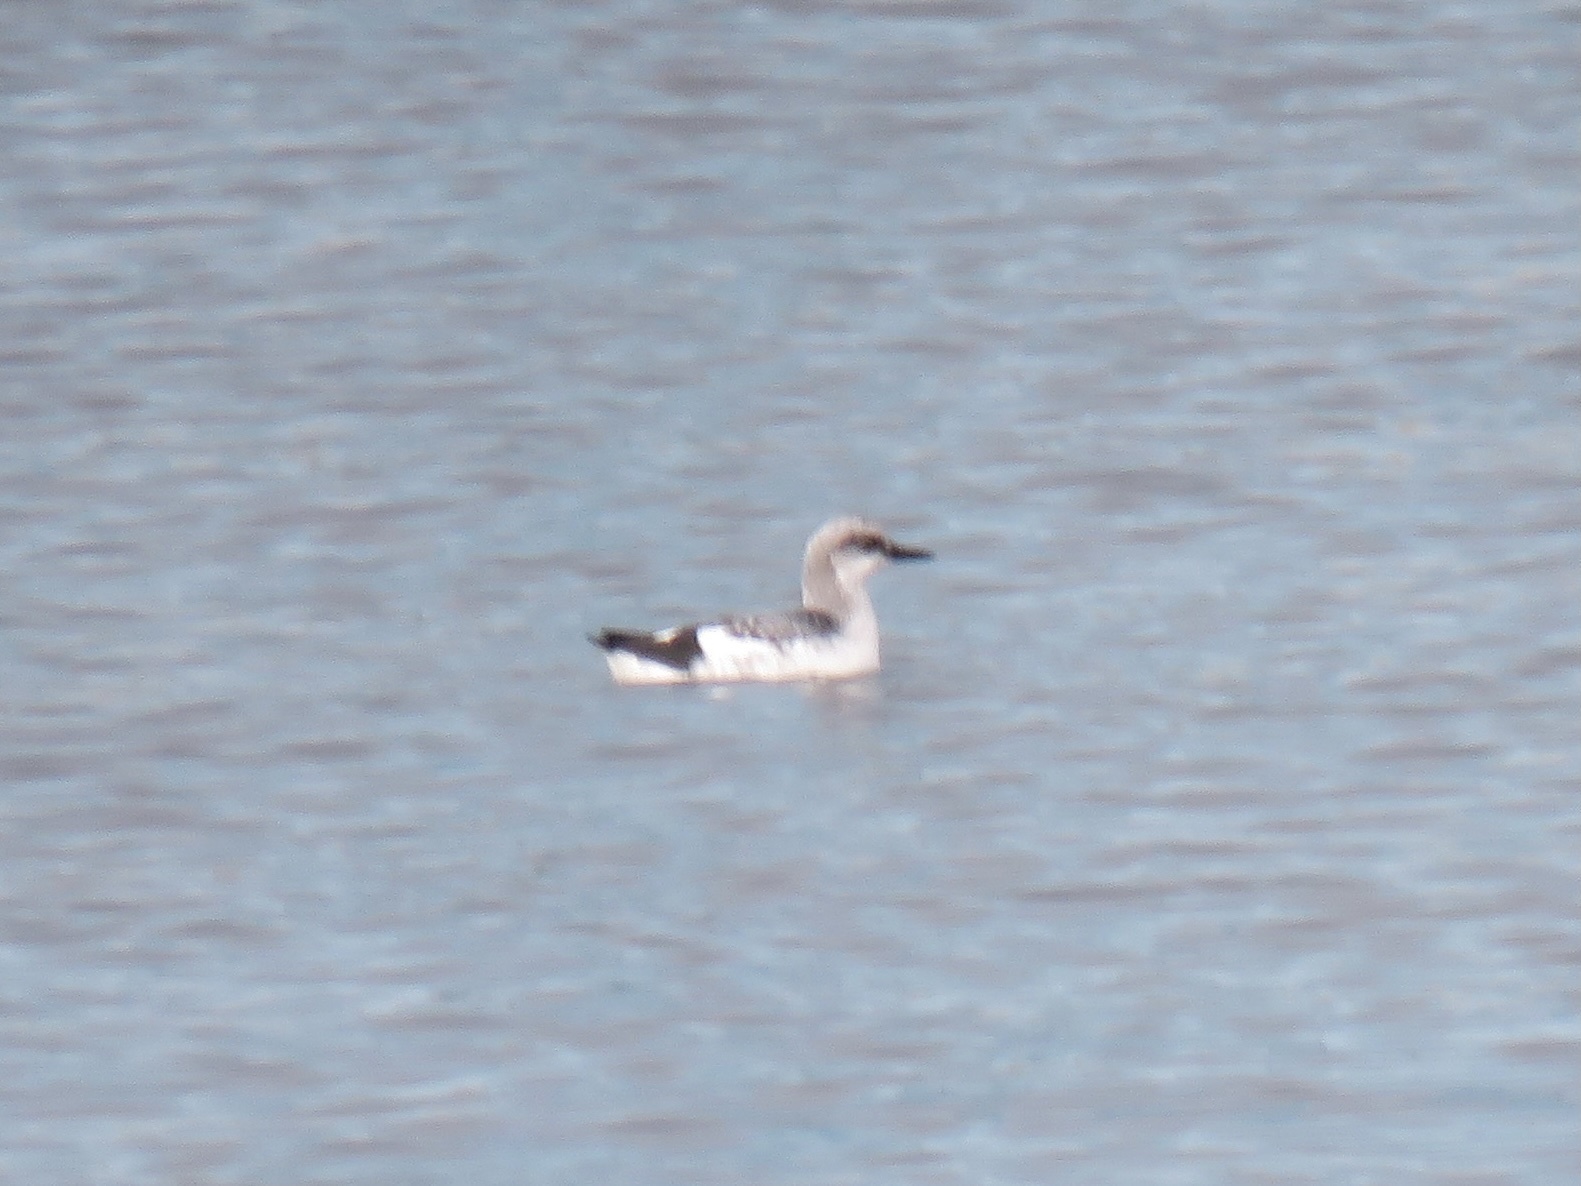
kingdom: Animalia
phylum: Chordata
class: Aves
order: Charadriiformes
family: Alcidae
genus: Cepphus
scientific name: Cepphus columba
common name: Pigeon guillemot
